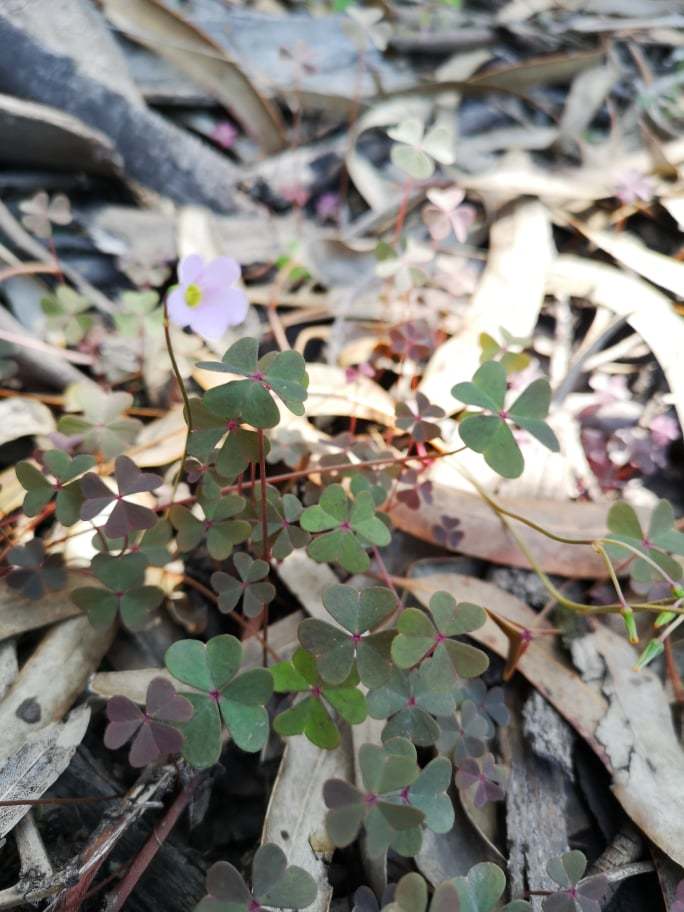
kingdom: Plantae
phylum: Tracheophyta
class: Magnoliopsida
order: Oxalidales
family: Oxalidaceae
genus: Oxalis
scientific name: Oxalis cuatrecasasii
